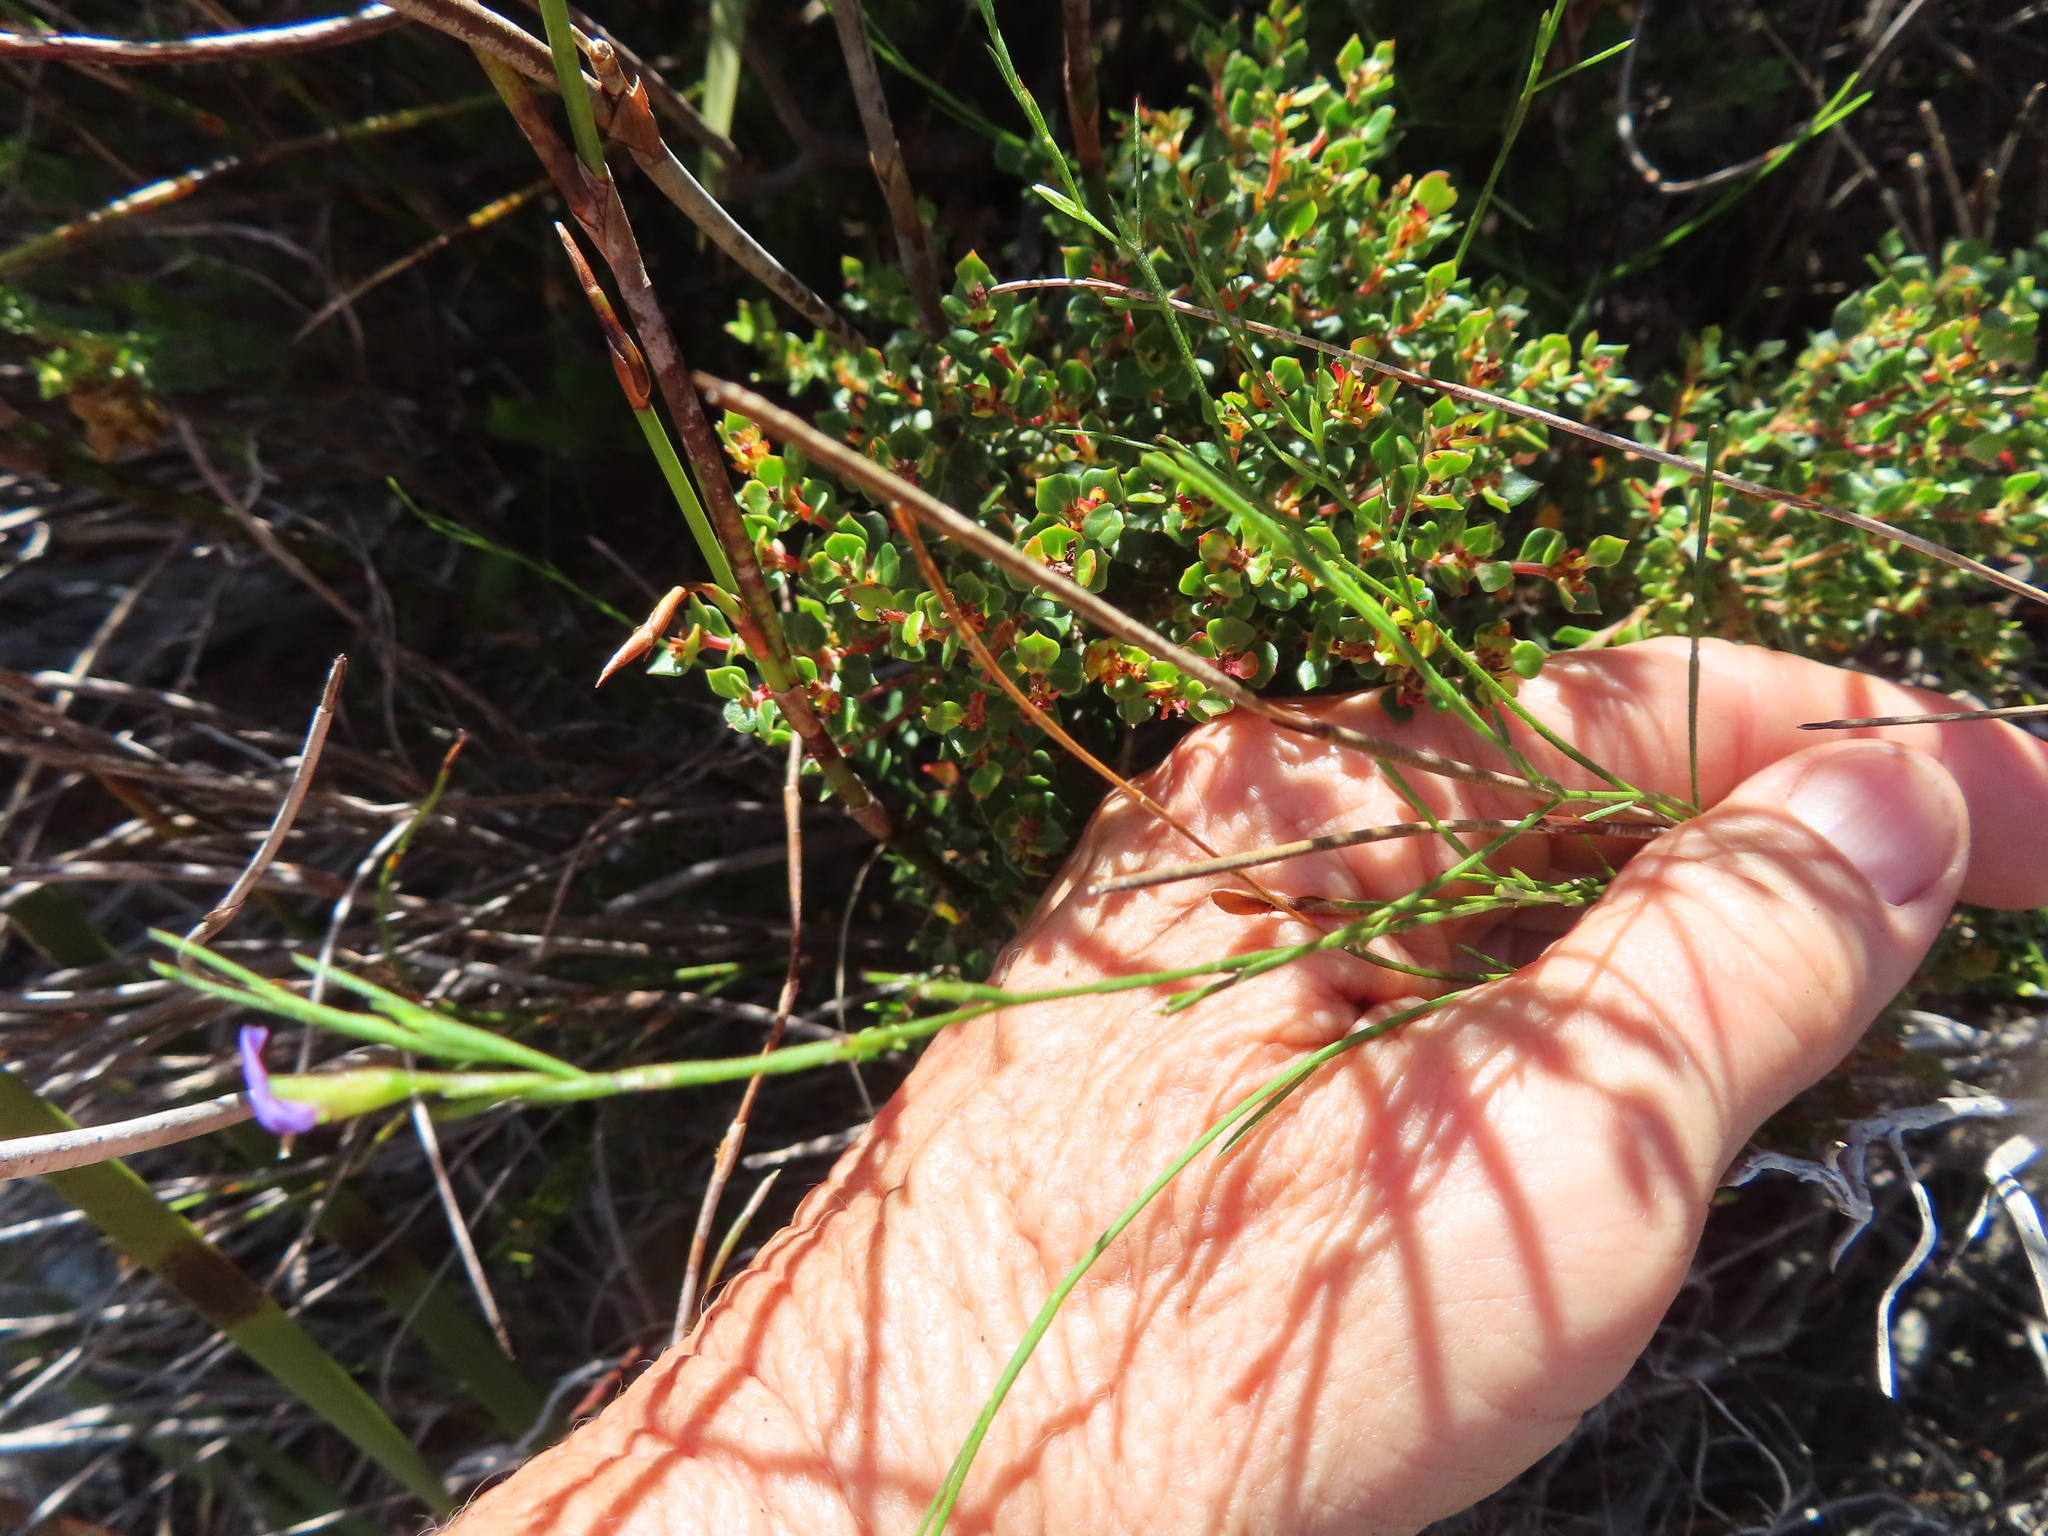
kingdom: Plantae
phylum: Tracheophyta
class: Magnoliopsida
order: Fabales
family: Fabaceae
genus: Psoralea
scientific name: Psoralea restioides
